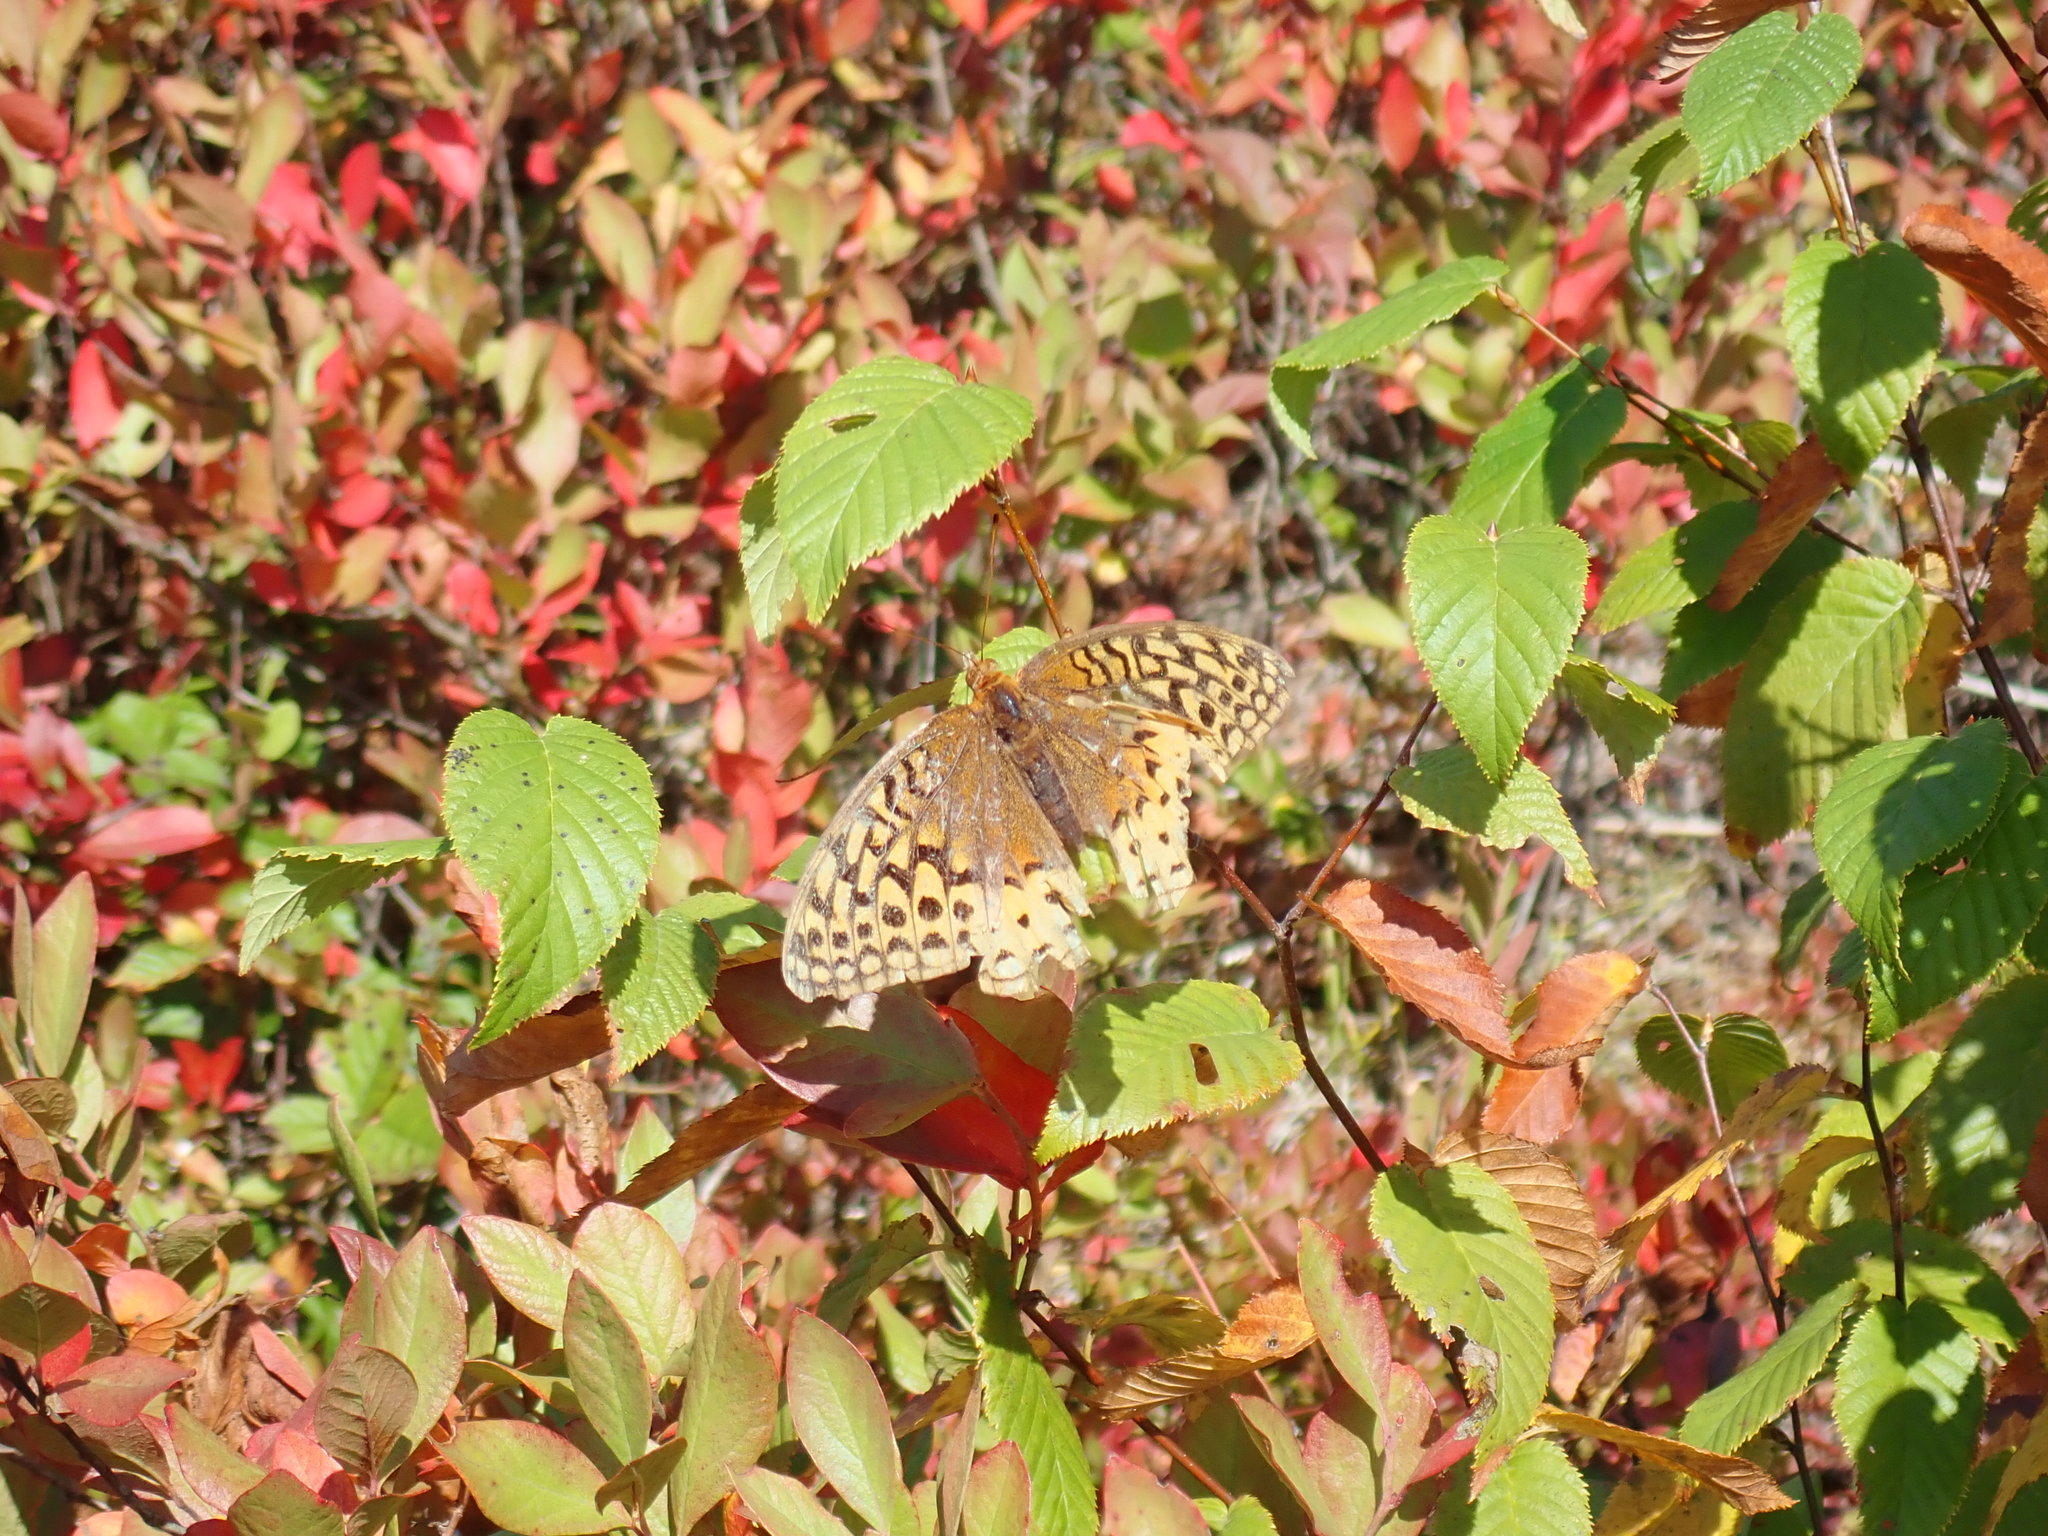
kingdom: Animalia
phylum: Arthropoda
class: Insecta
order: Lepidoptera
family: Nymphalidae
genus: Speyeria
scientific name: Speyeria cybele
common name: Great spangled fritillary
